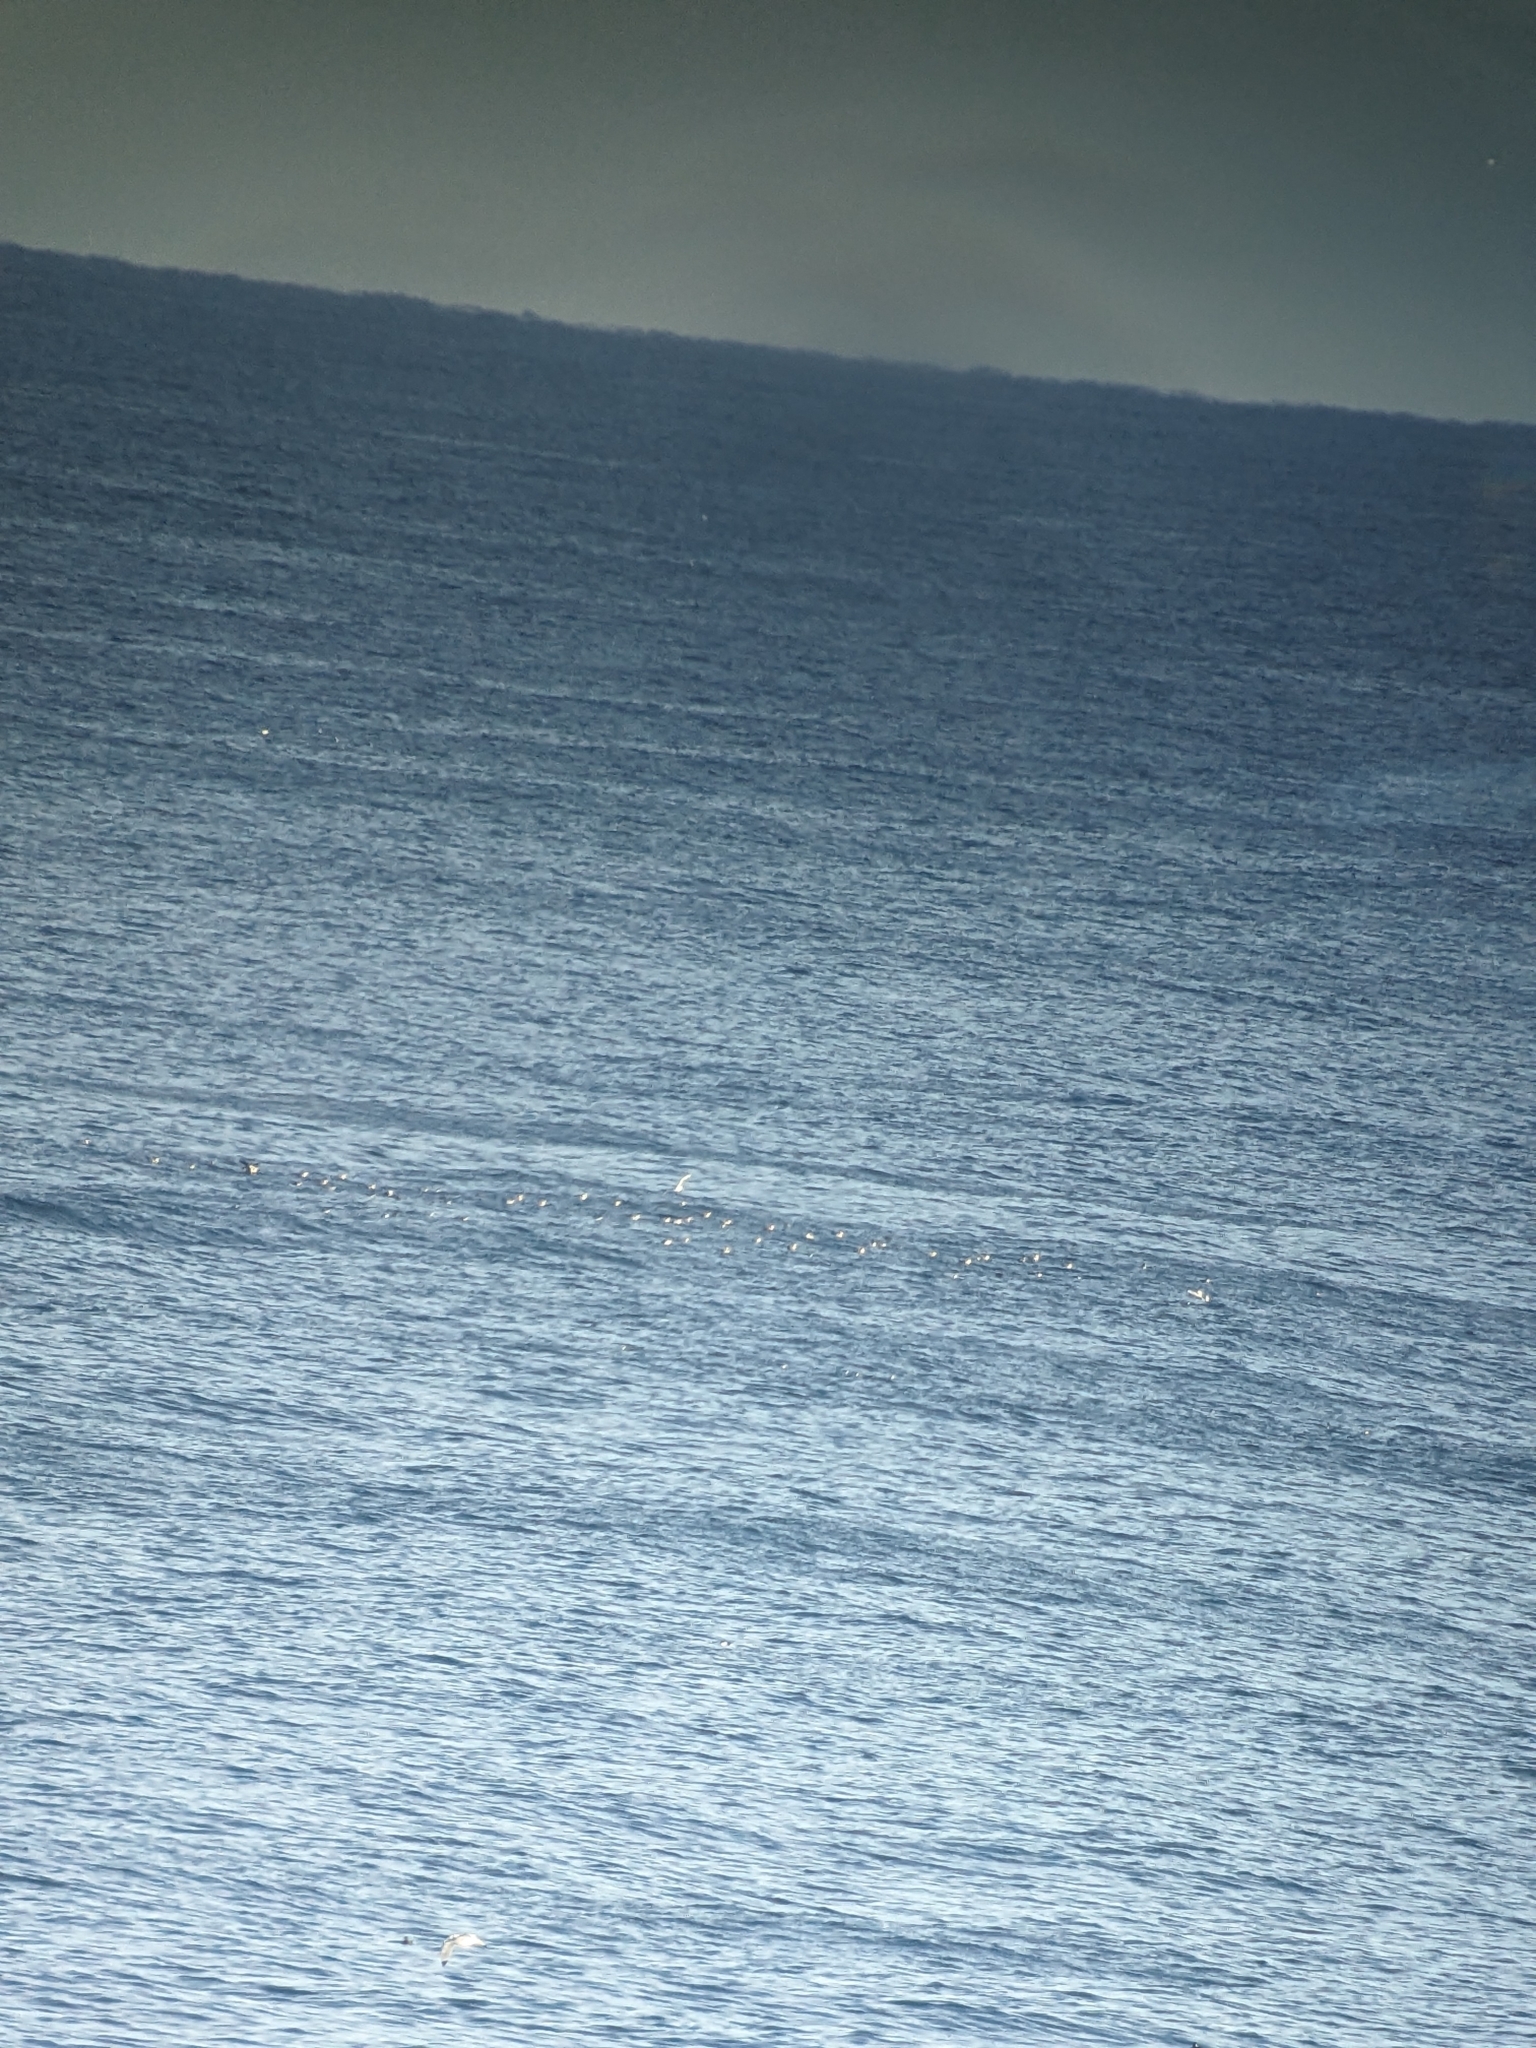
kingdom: Animalia
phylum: Chordata
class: Aves
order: Charadriiformes
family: Alcidae
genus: Alca
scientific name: Alca torda
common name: Razorbill
